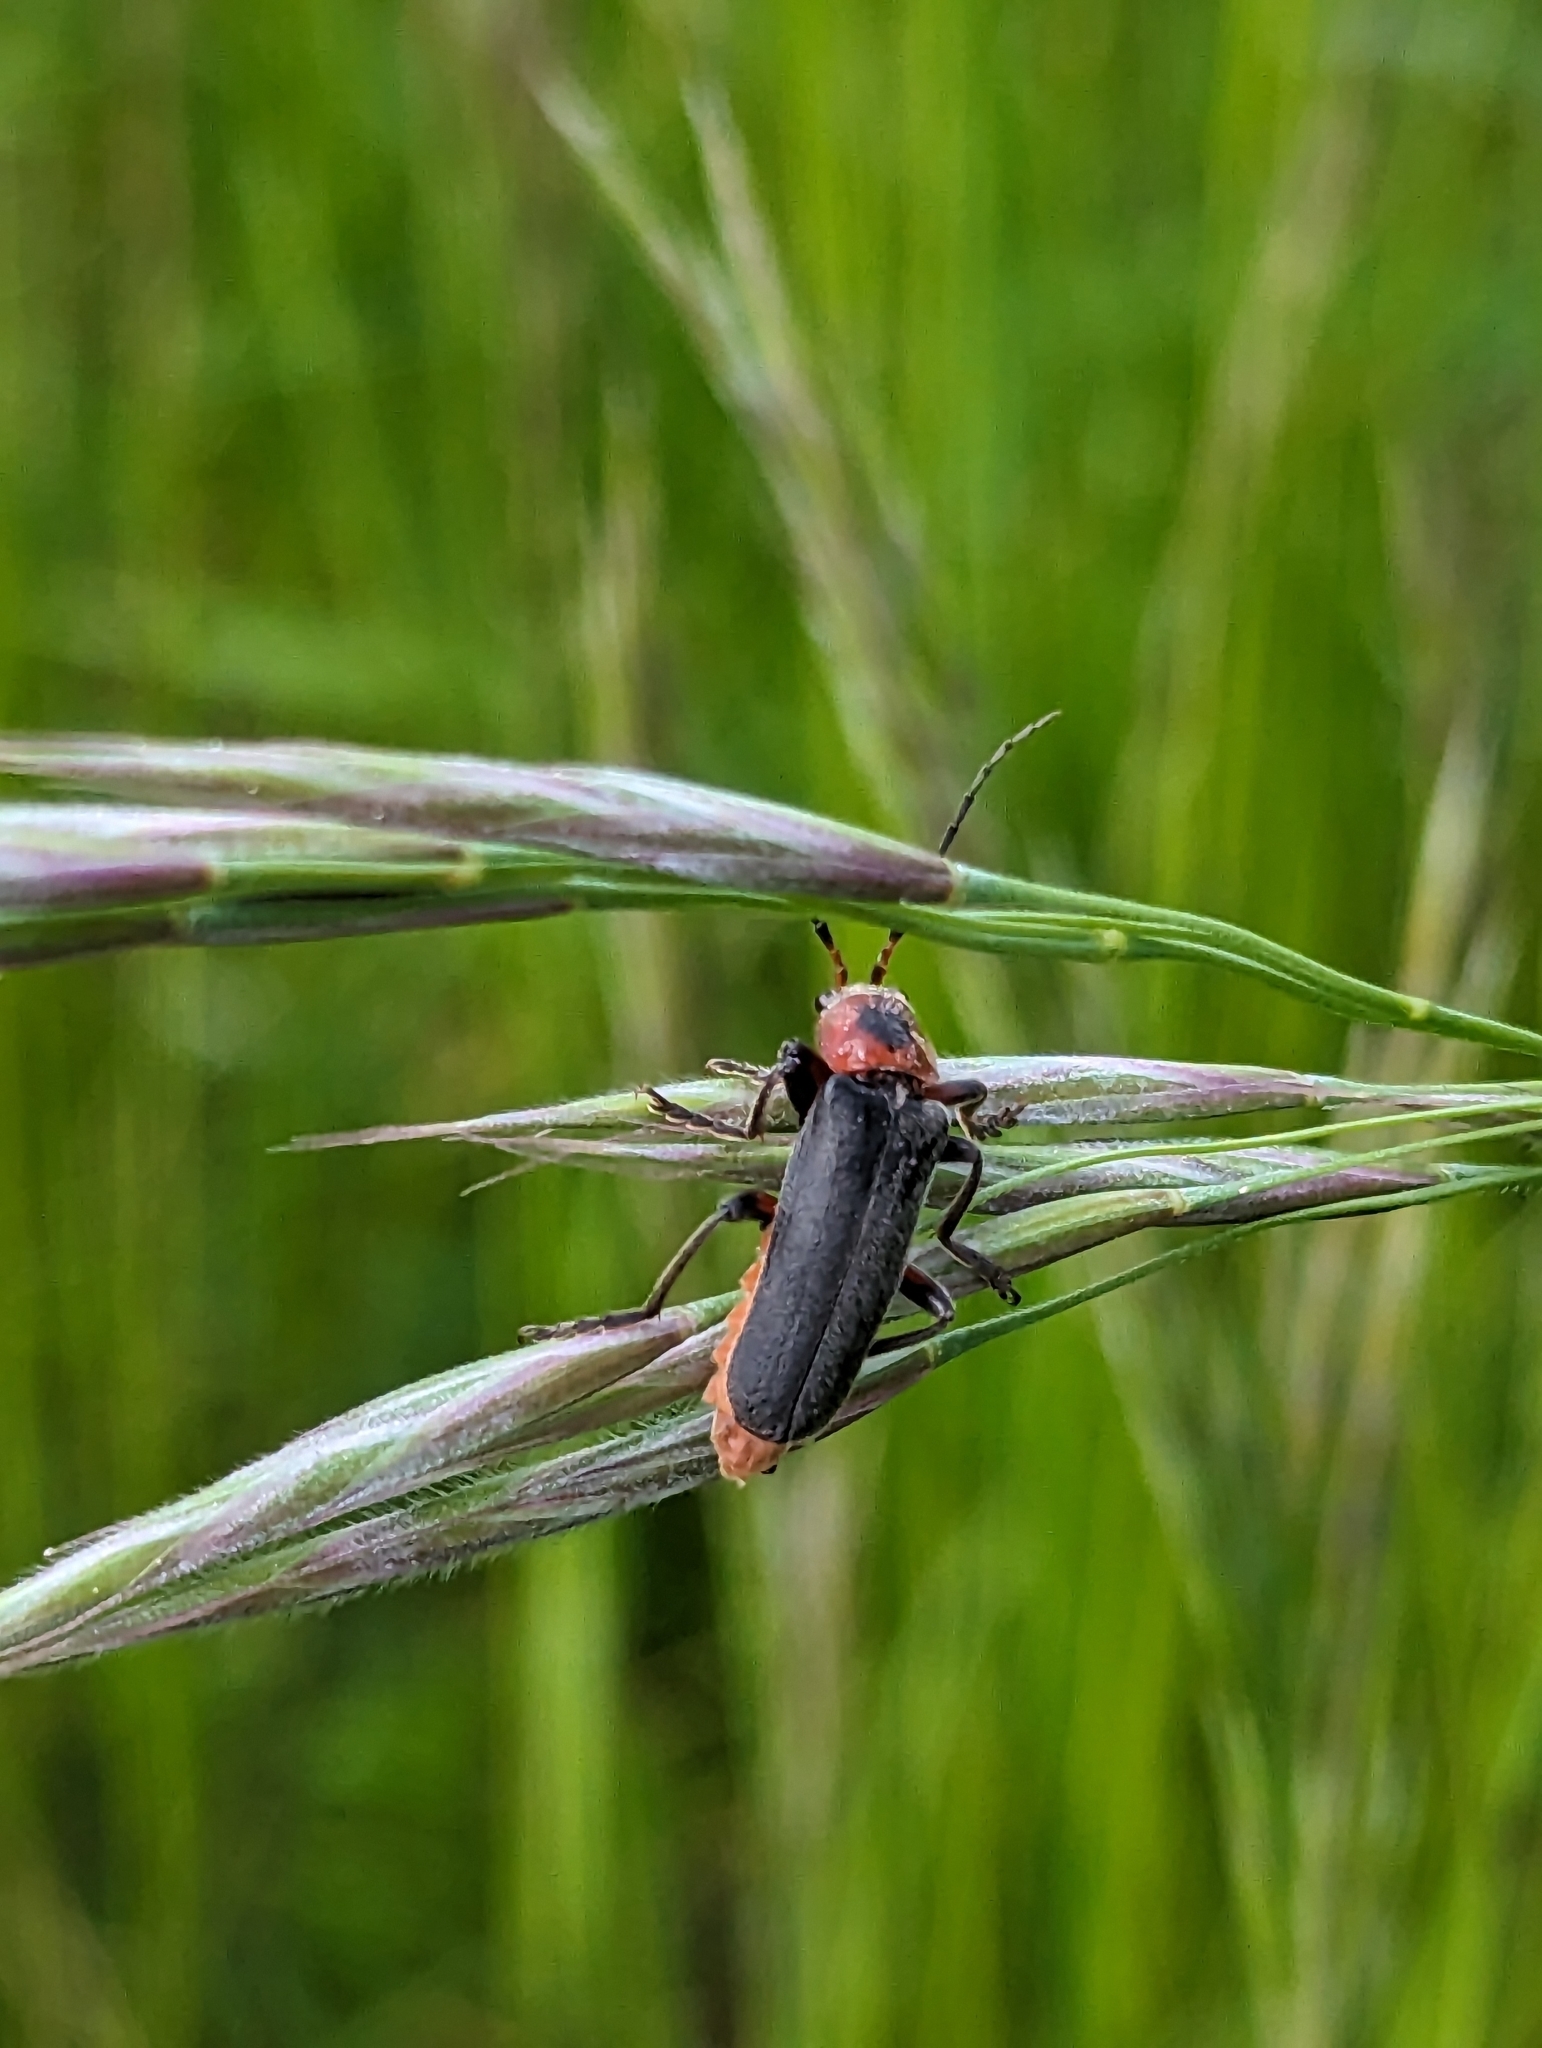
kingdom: Animalia
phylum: Arthropoda
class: Insecta
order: Coleoptera
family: Cantharidae
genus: Cantharis
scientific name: Cantharis rustica
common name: Soldier beetle
